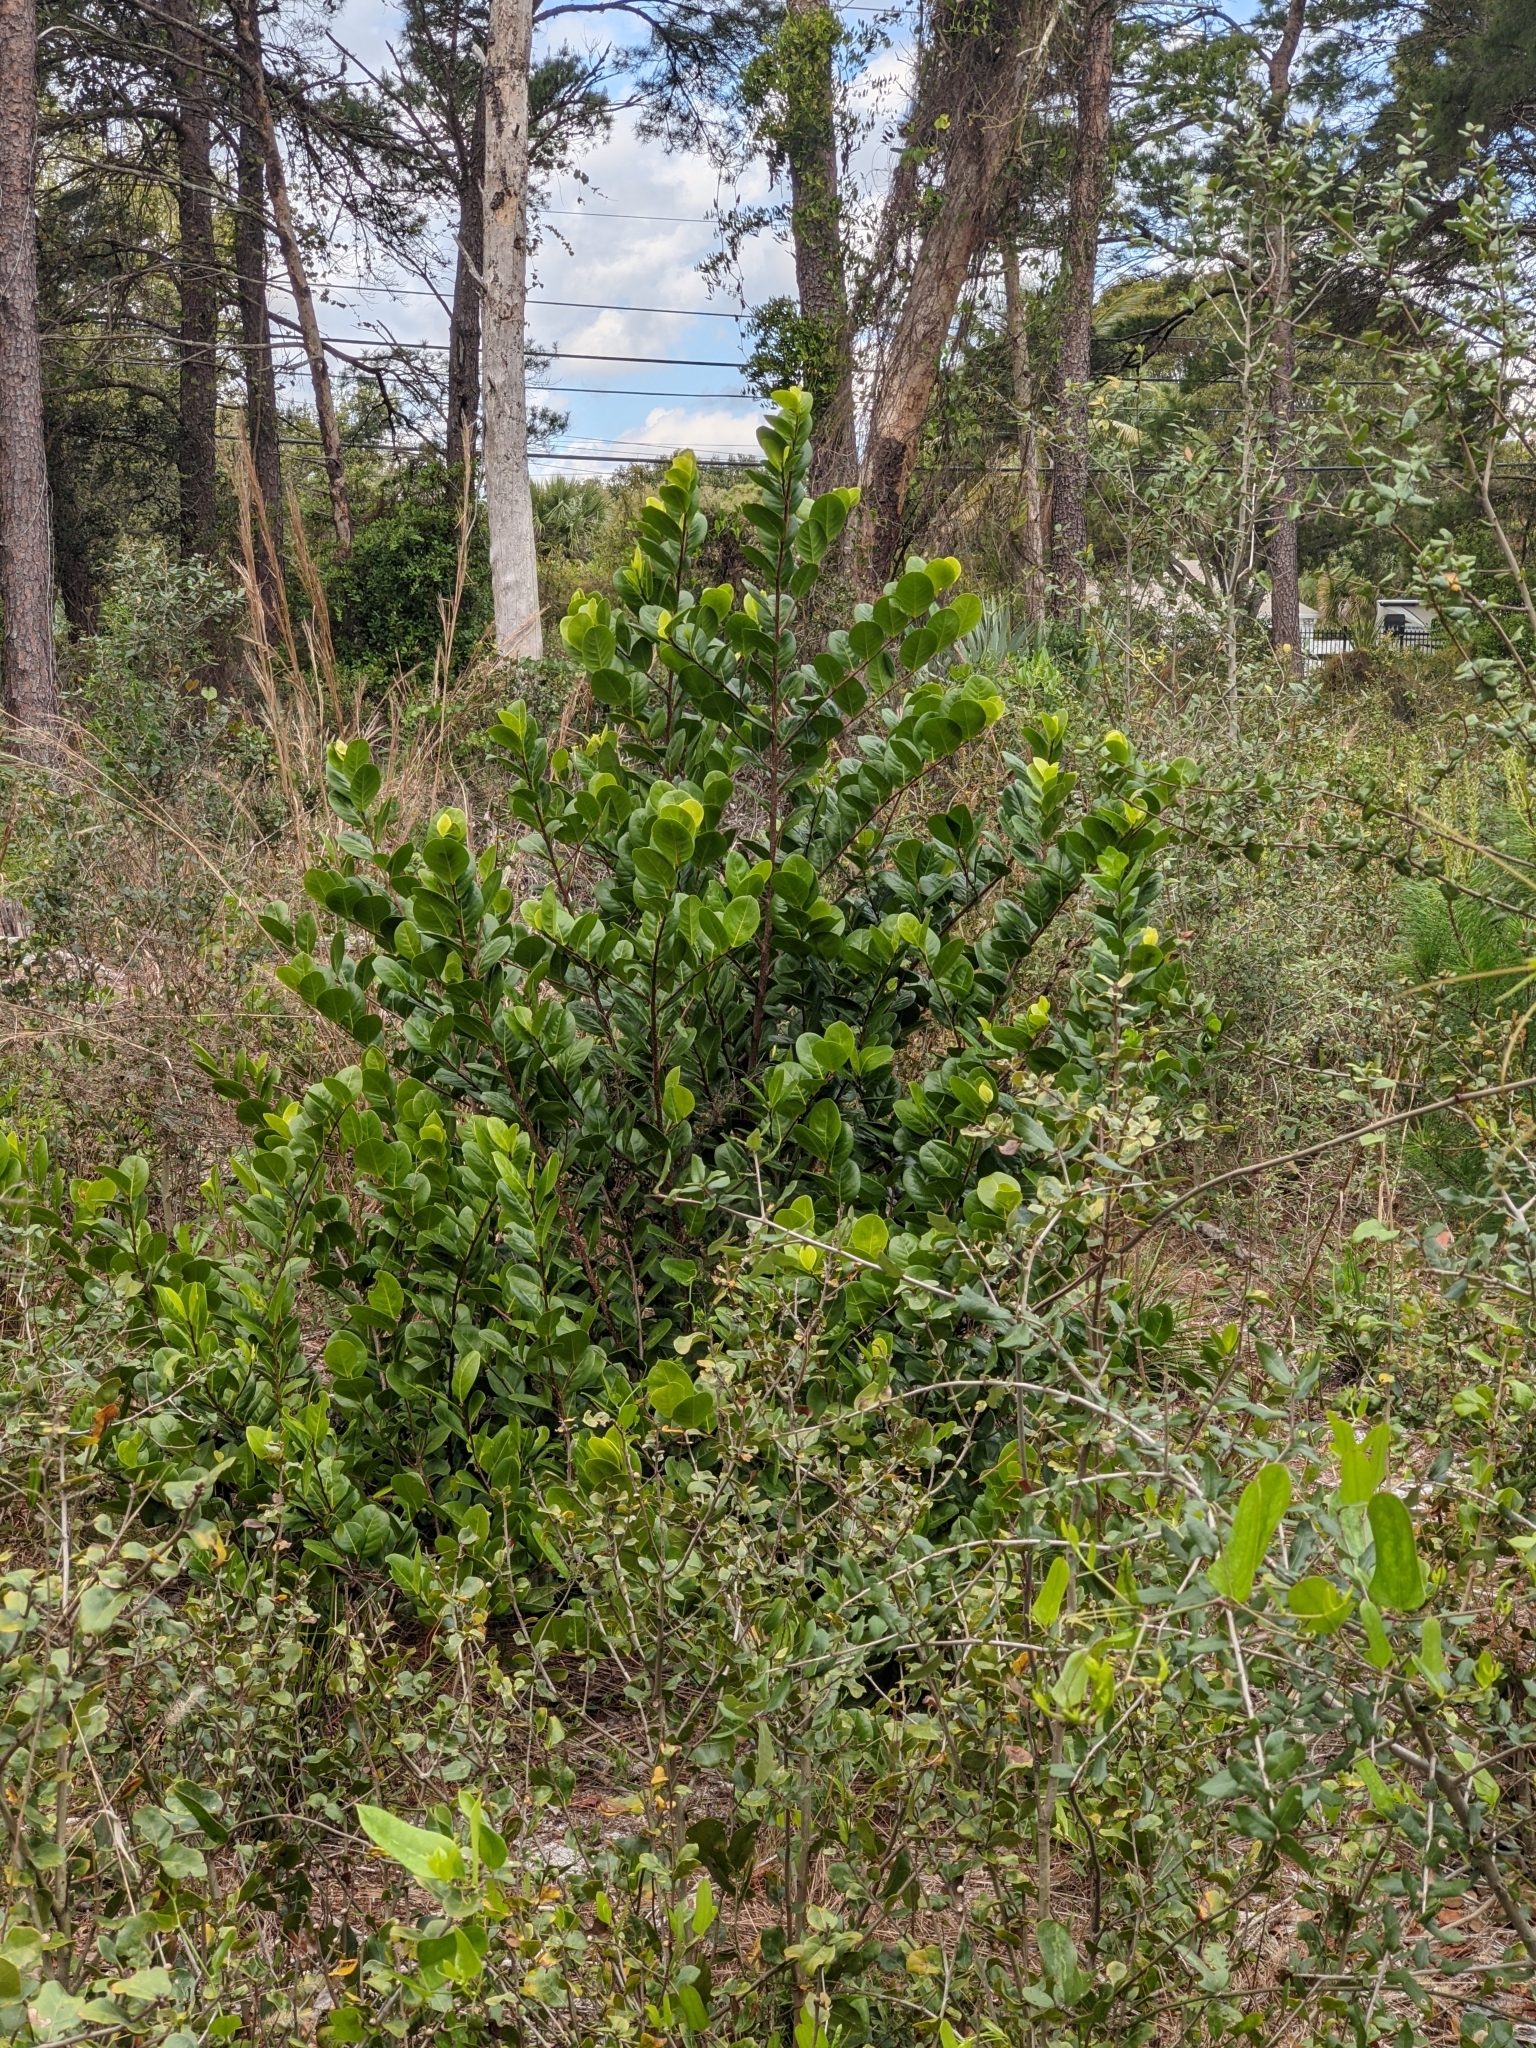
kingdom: Plantae
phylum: Tracheophyta
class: Magnoliopsida
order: Malpighiales
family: Chrysobalanaceae
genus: Chrysobalanus
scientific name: Chrysobalanus icaco
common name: Coco plum
